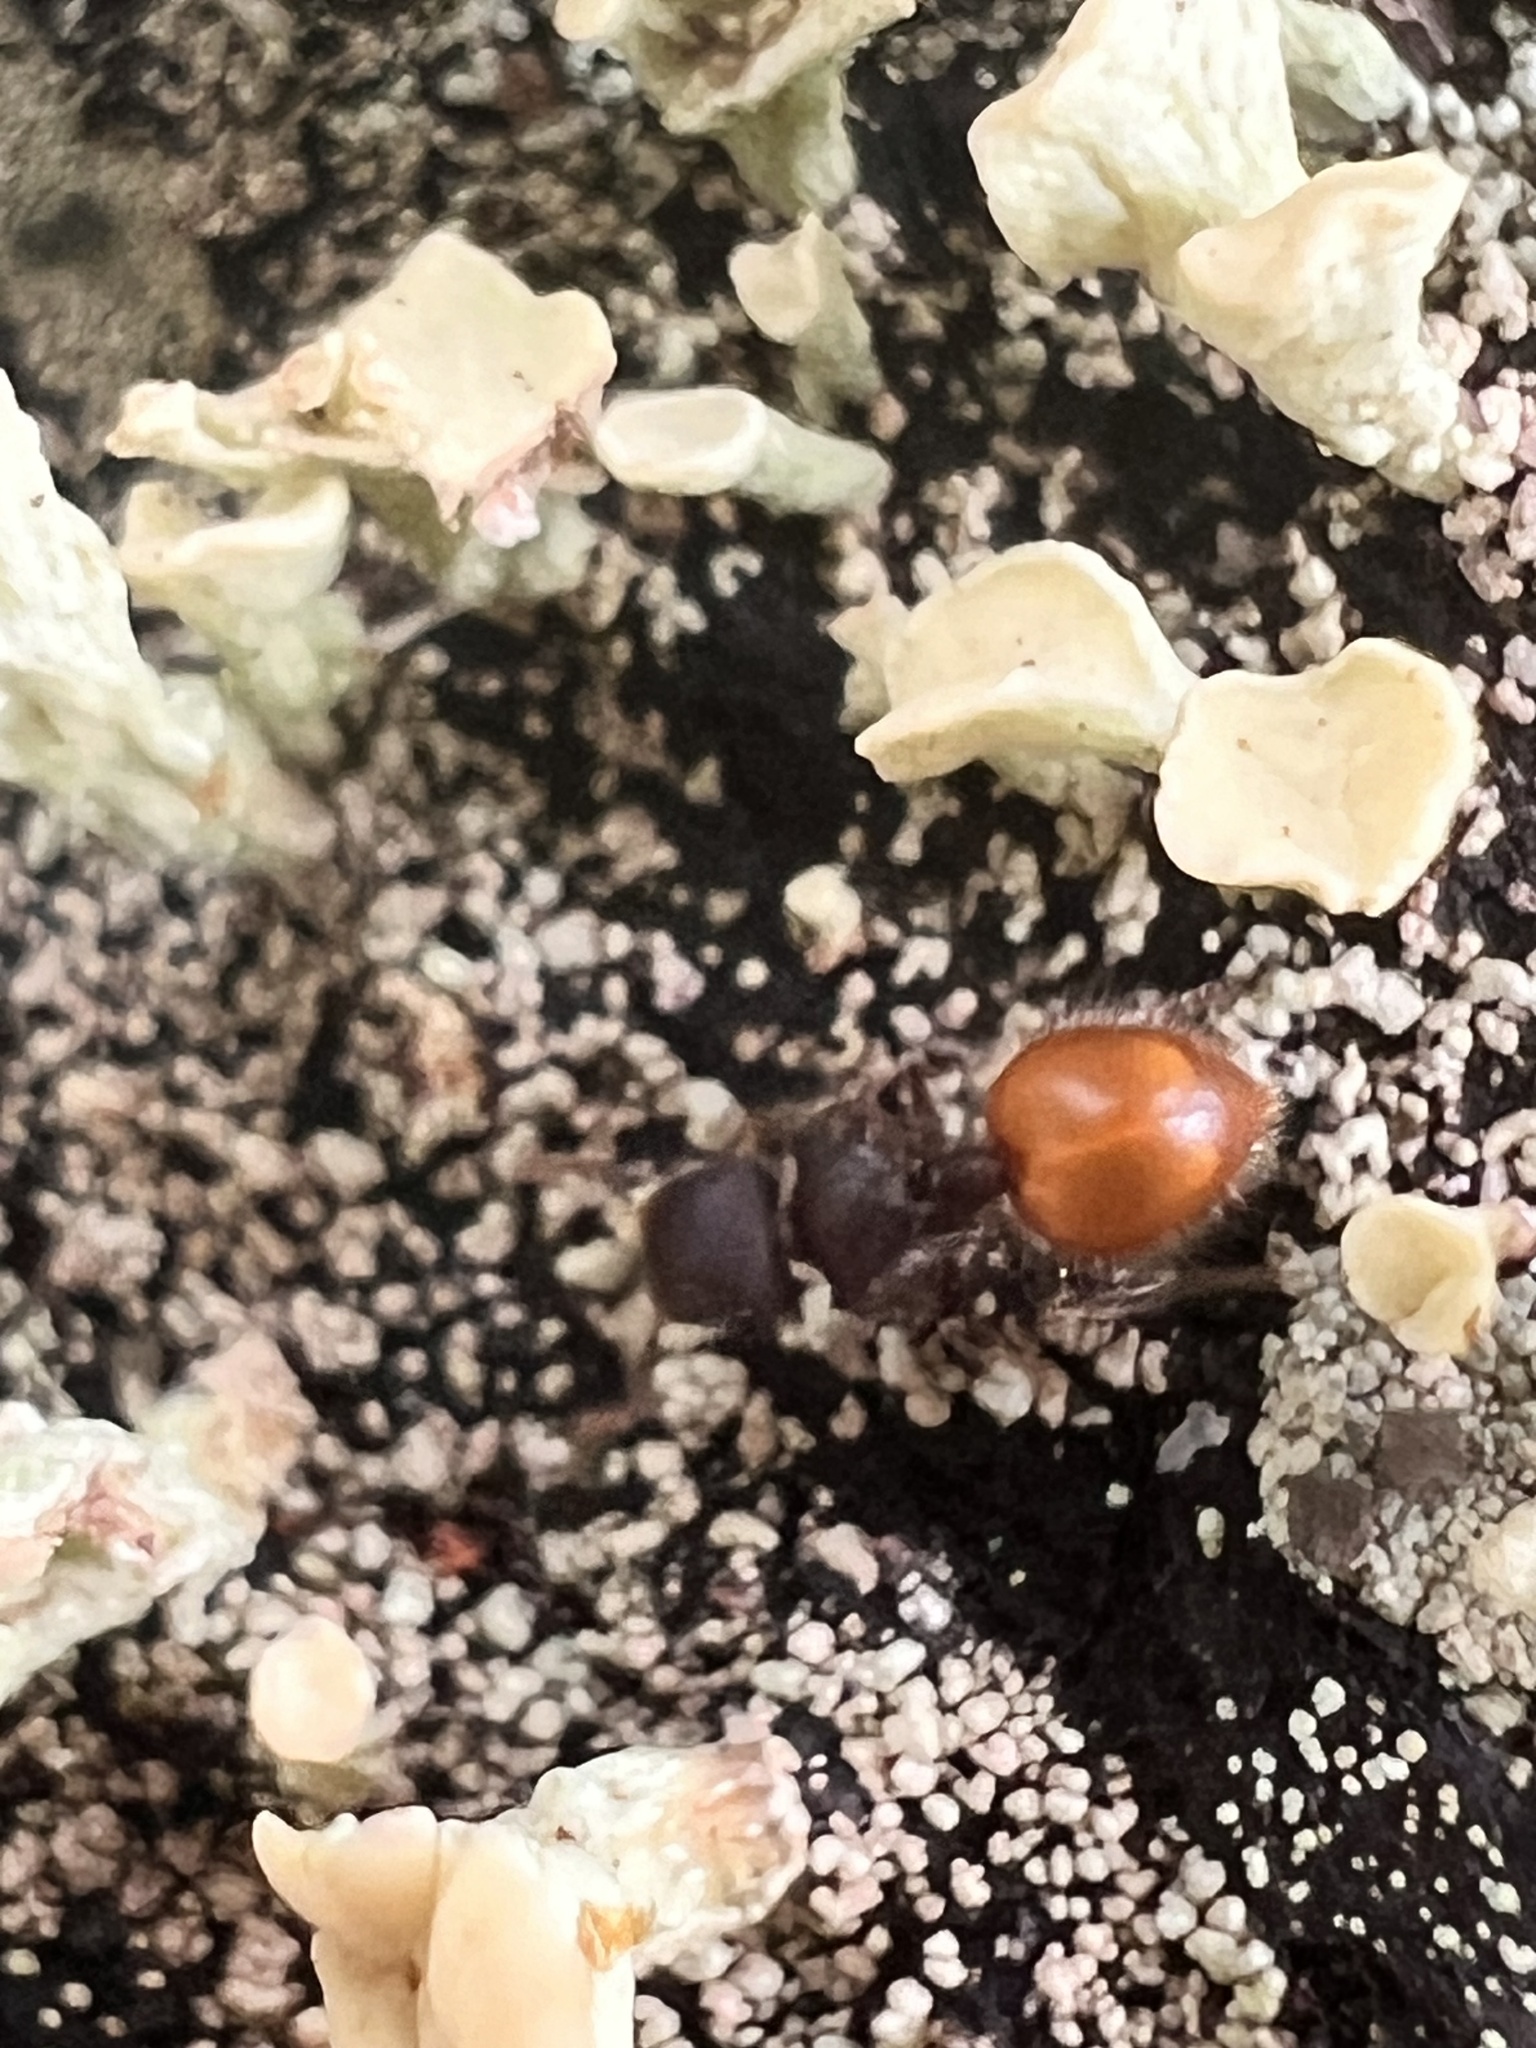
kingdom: Animalia
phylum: Arthropoda
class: Insecta
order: Hymenoptera
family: Formicidae
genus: Meranoplus
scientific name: Meranoplus hirsutus
